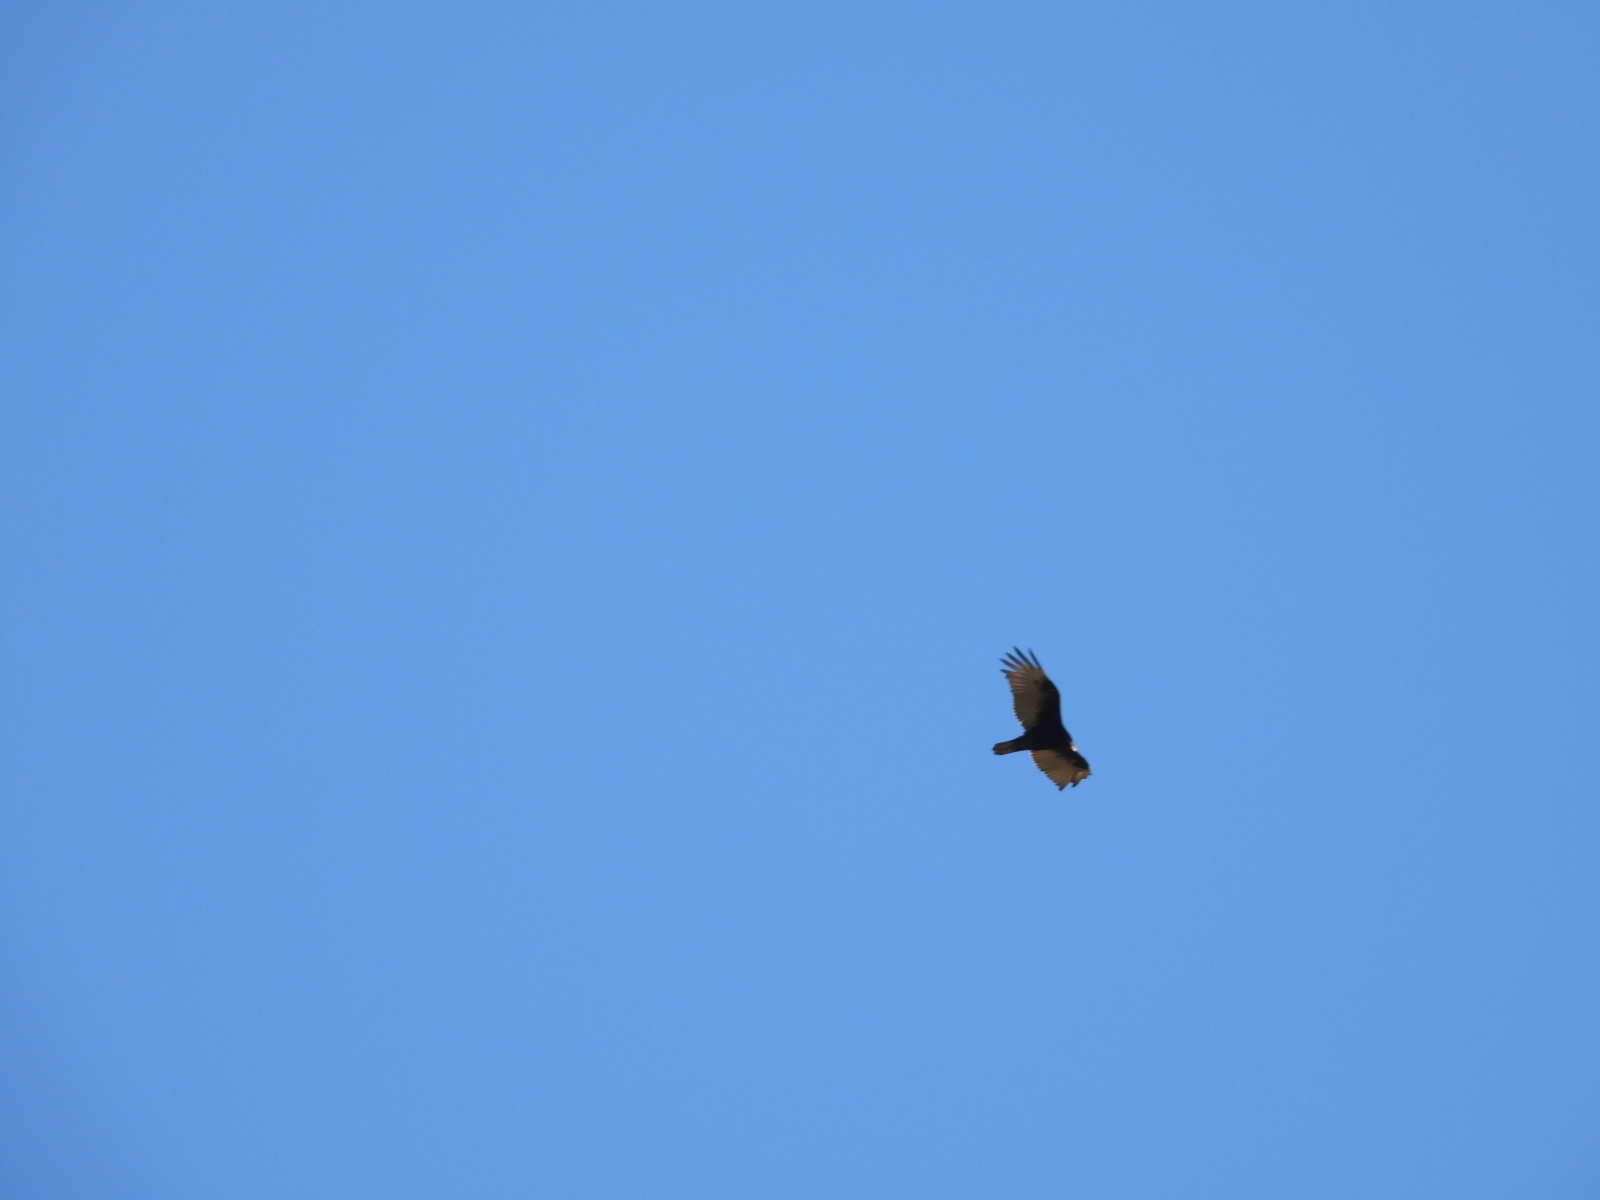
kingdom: Animalia
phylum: Chordata
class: Aves
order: Accipitriformes
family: Cathartidae
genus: Cathartes
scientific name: Cathartes aura
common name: Turkey vulture
